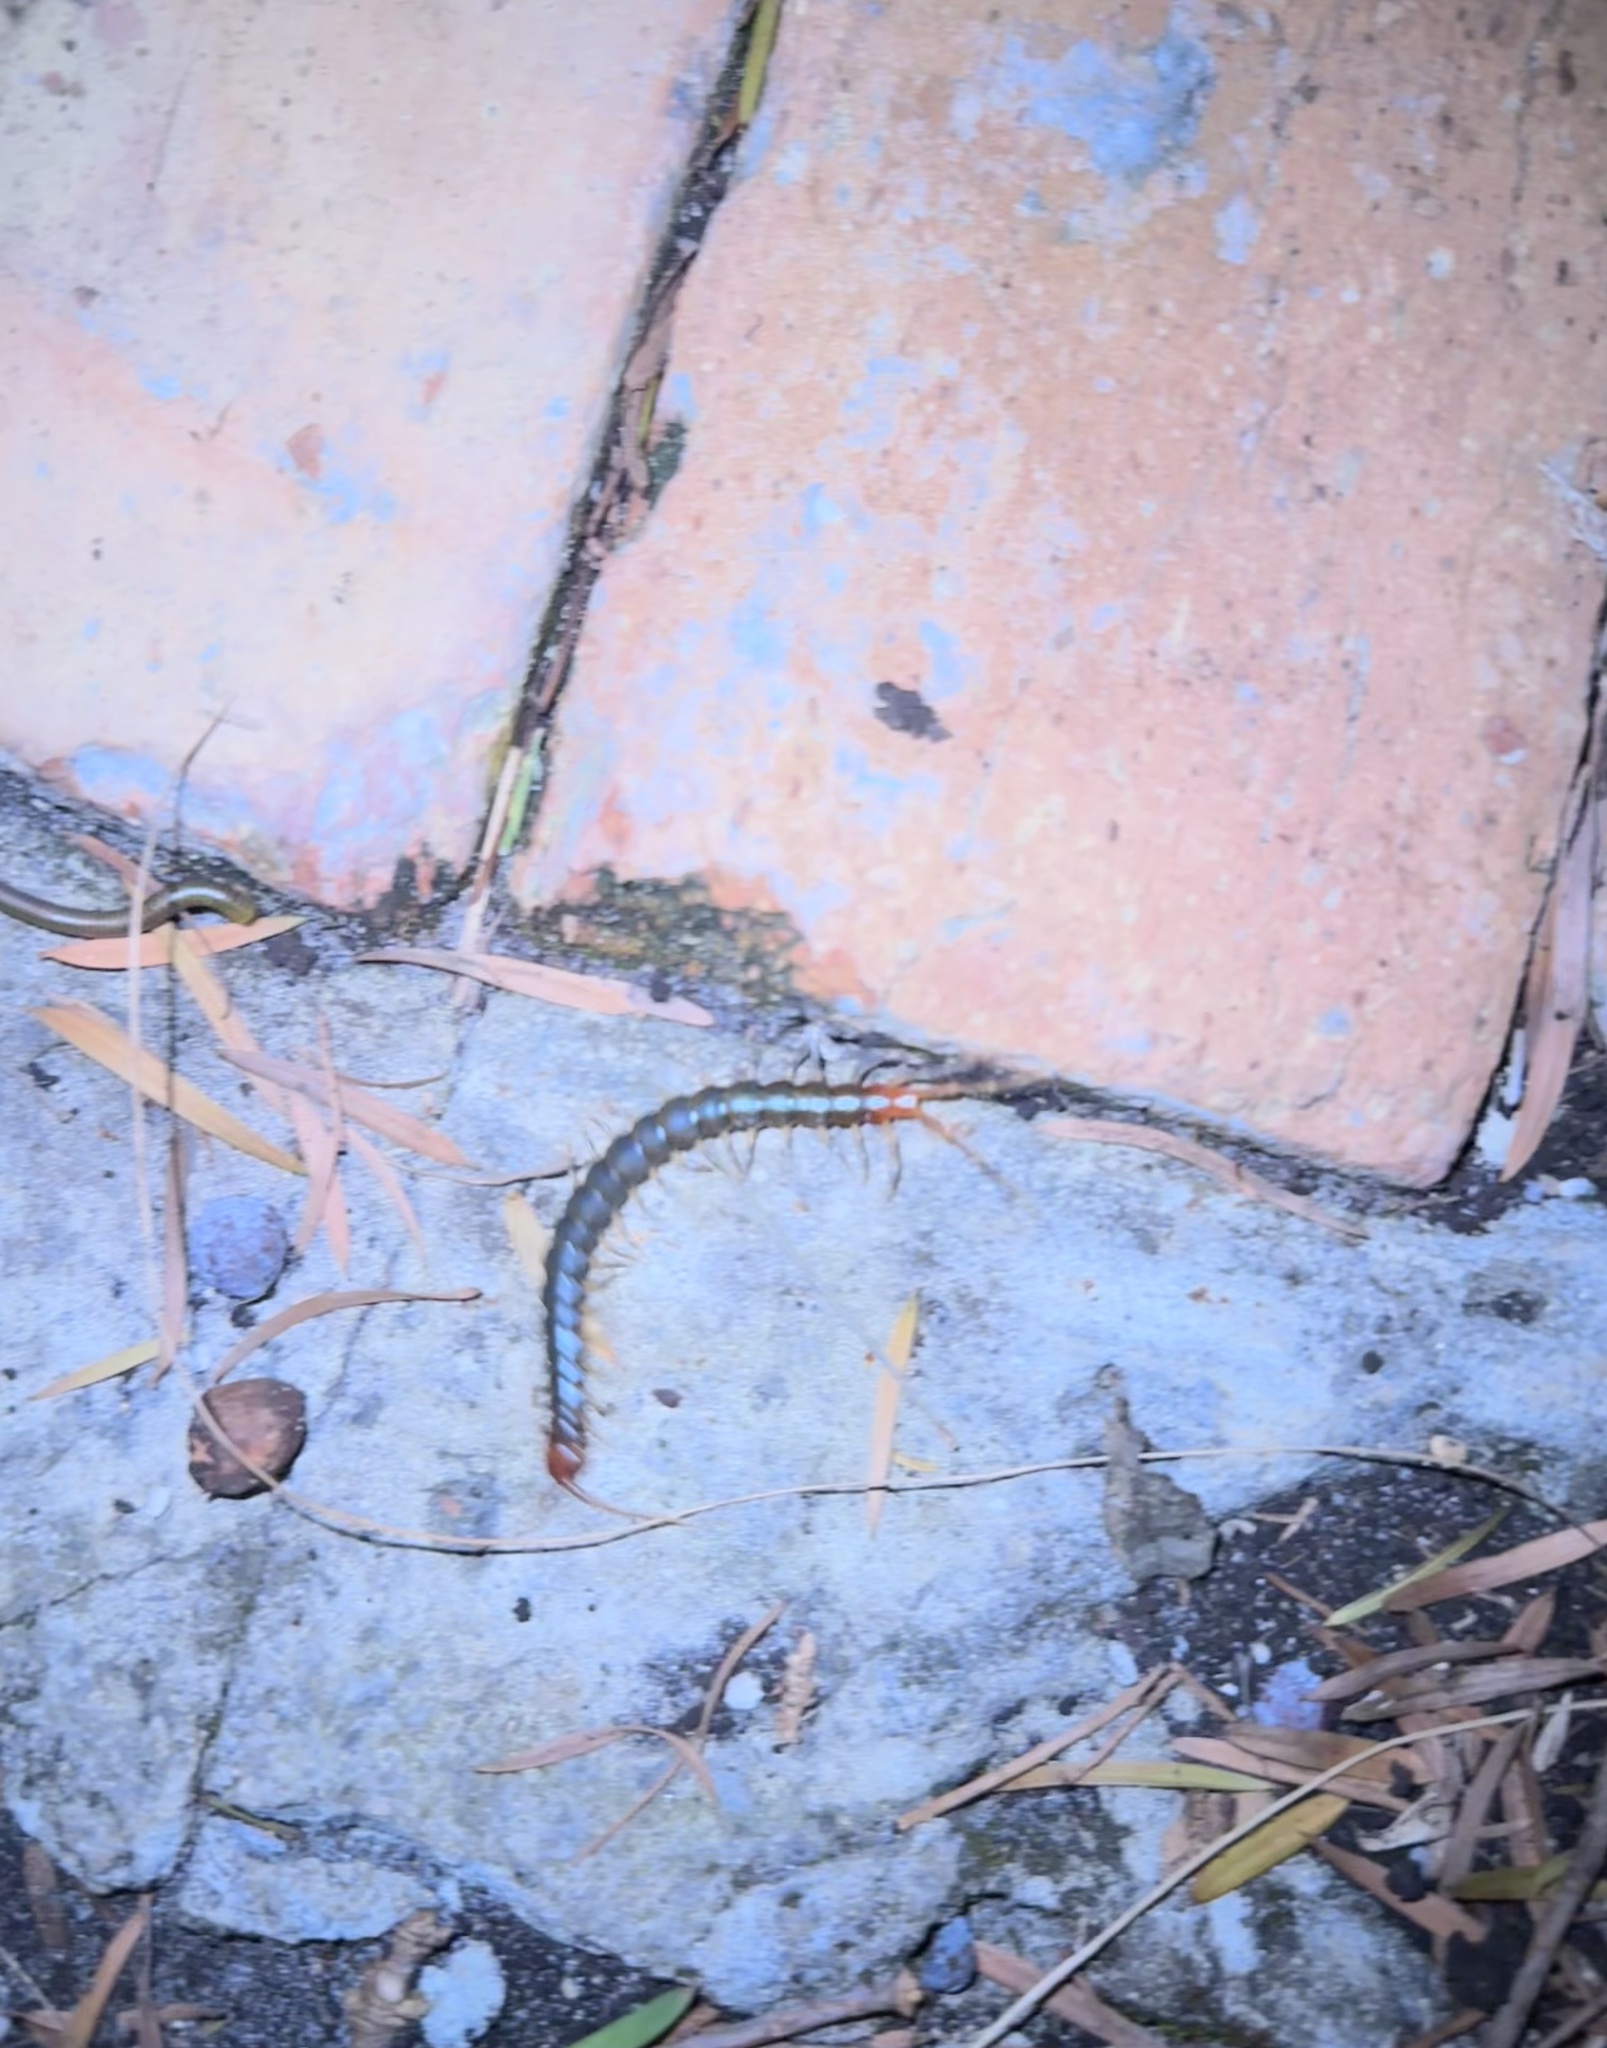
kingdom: Animalia
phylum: Arthropoda
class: Chilopoda
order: Scolopendromorpha
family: Scolopendridae
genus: Rhysida
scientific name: Rhysida longipes
